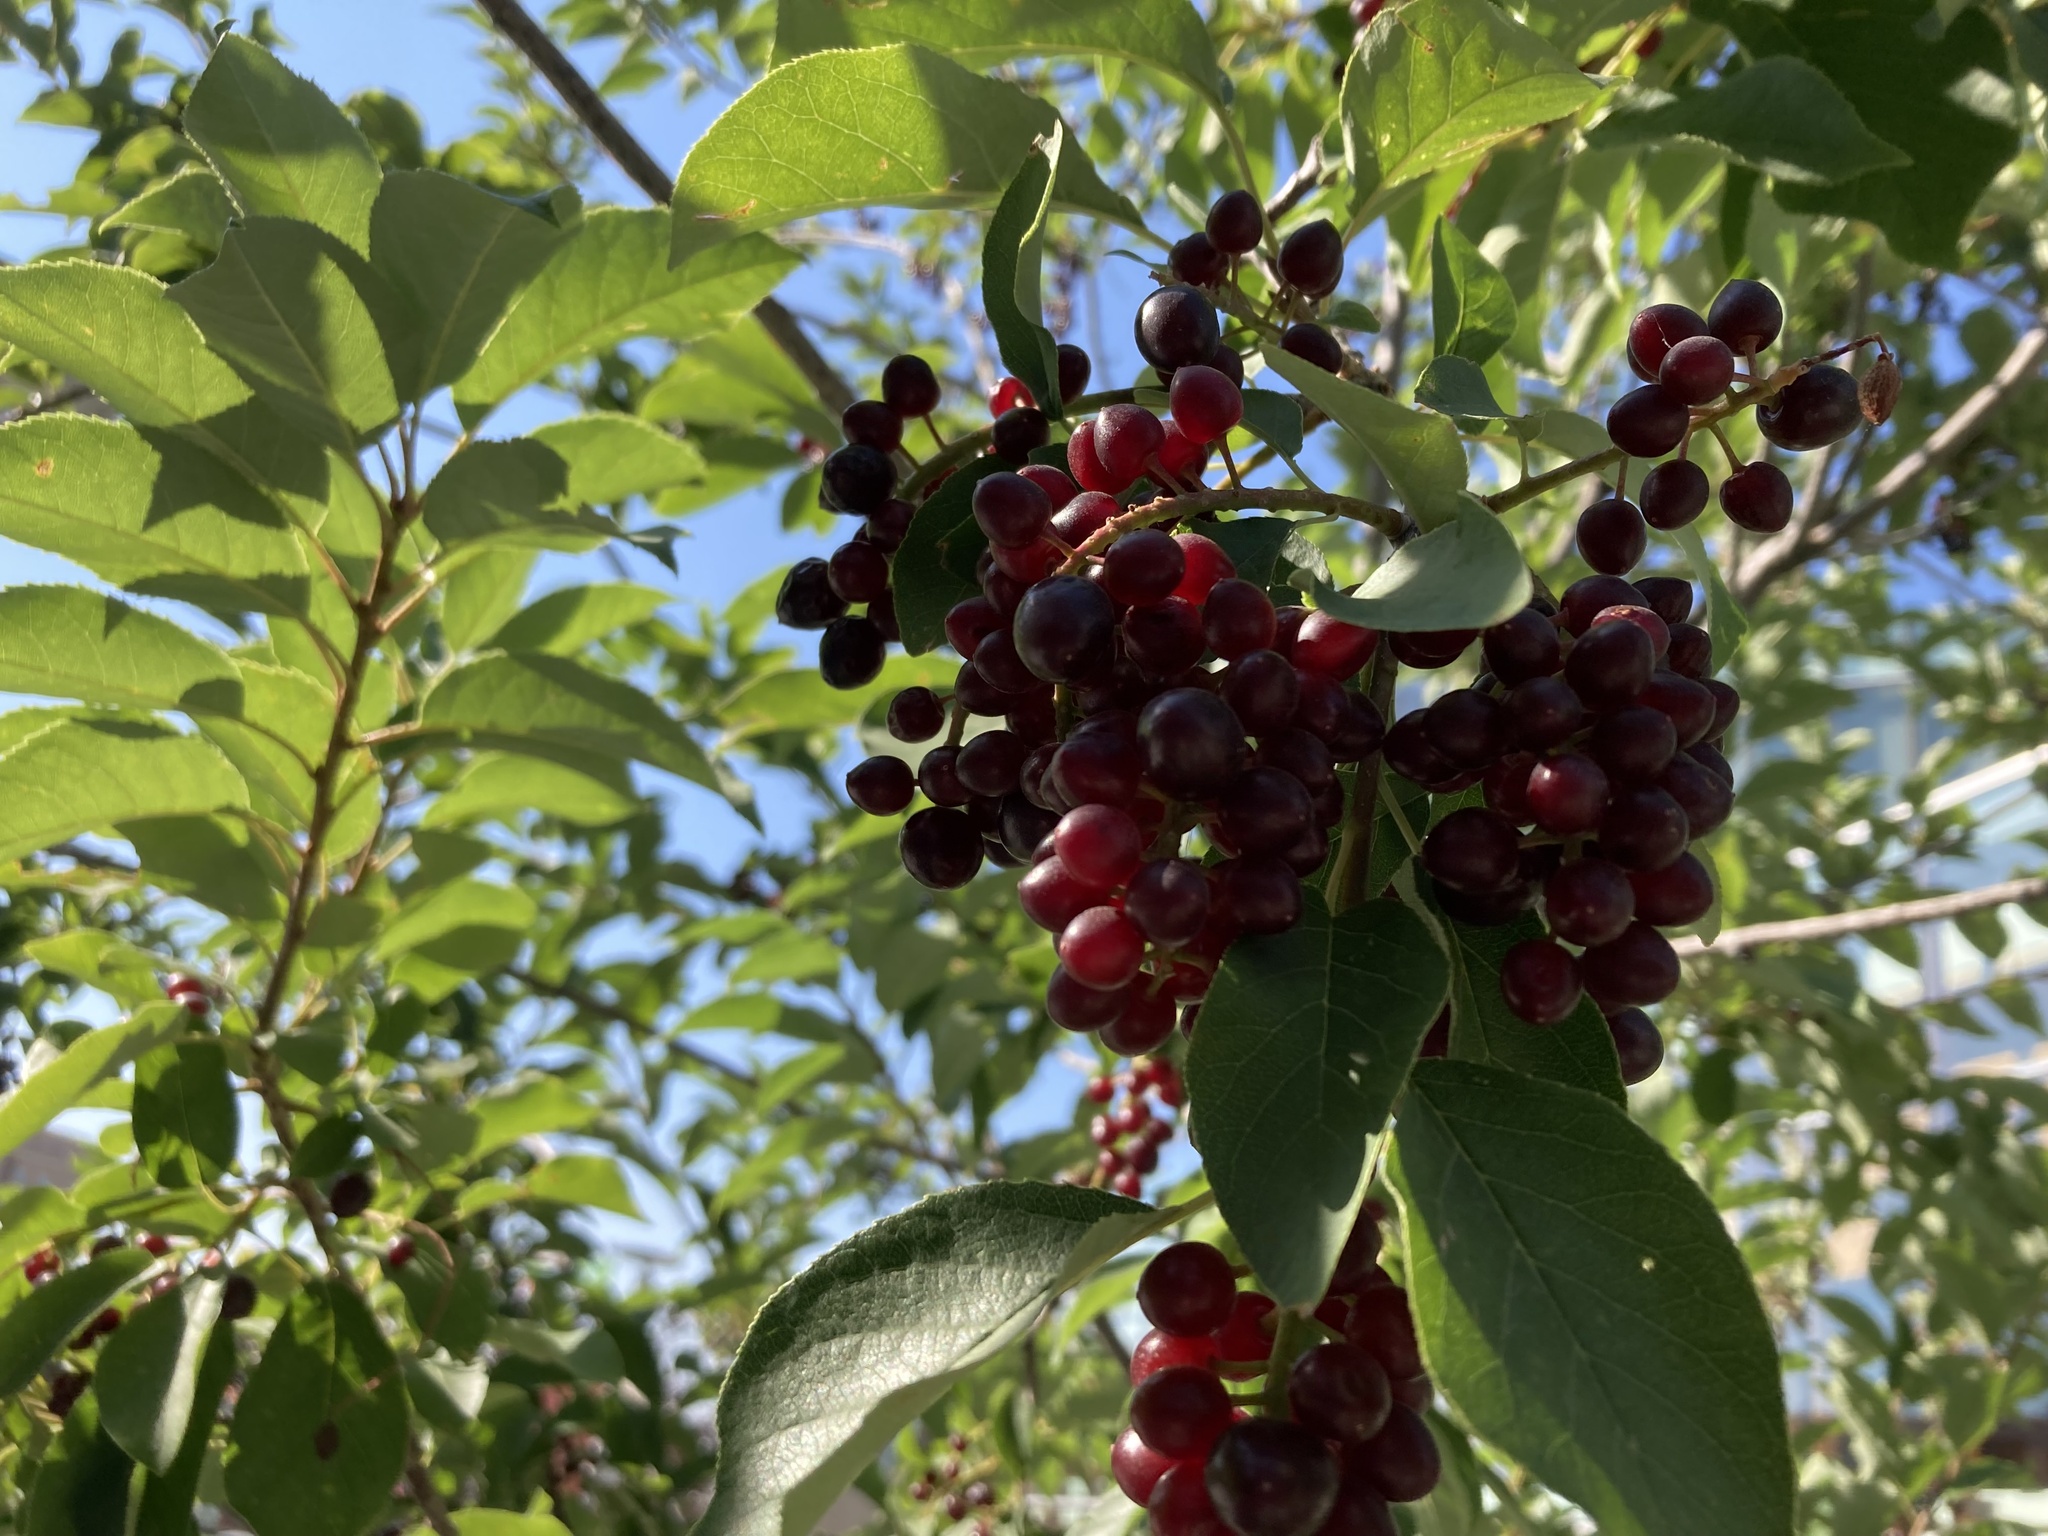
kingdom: Plantae
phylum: Tracheophyta
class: Magnoliopsida
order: Rosales
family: Rosaceae
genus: Prunus
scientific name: Prunus virginiana
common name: Chokecherry
